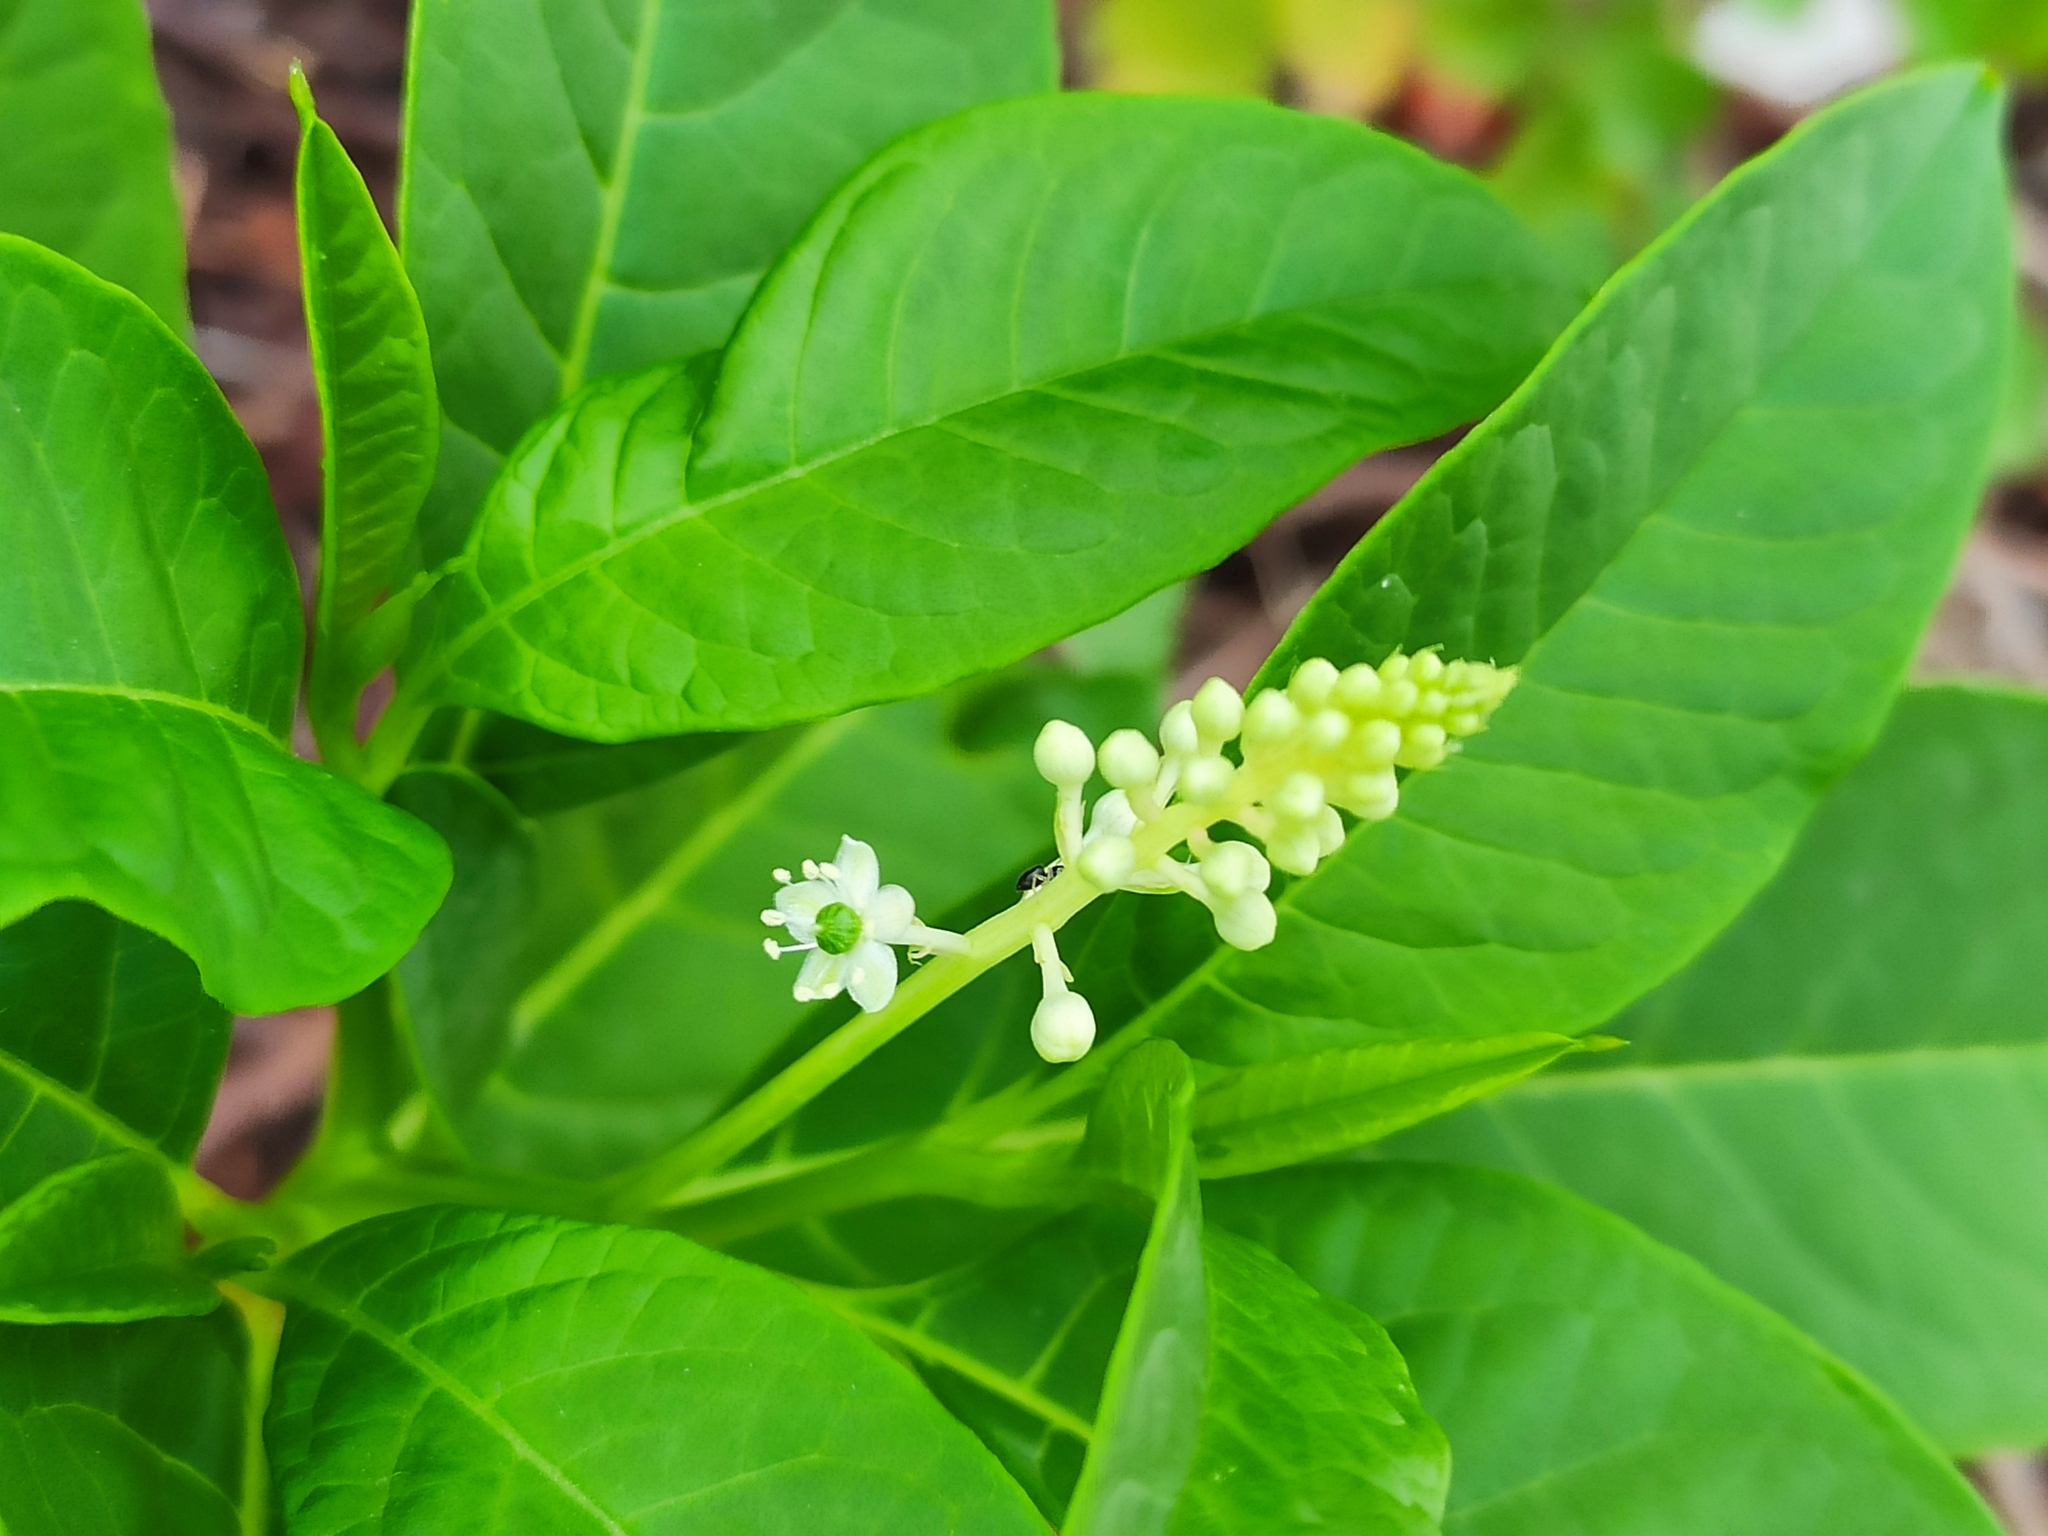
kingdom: Plantae
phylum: Tracheophyta
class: Magnoliopsida
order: Caryophyllales
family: Phytolaccaceae
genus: Phytolacca
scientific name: Phytolacca americana
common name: American pokeweed
